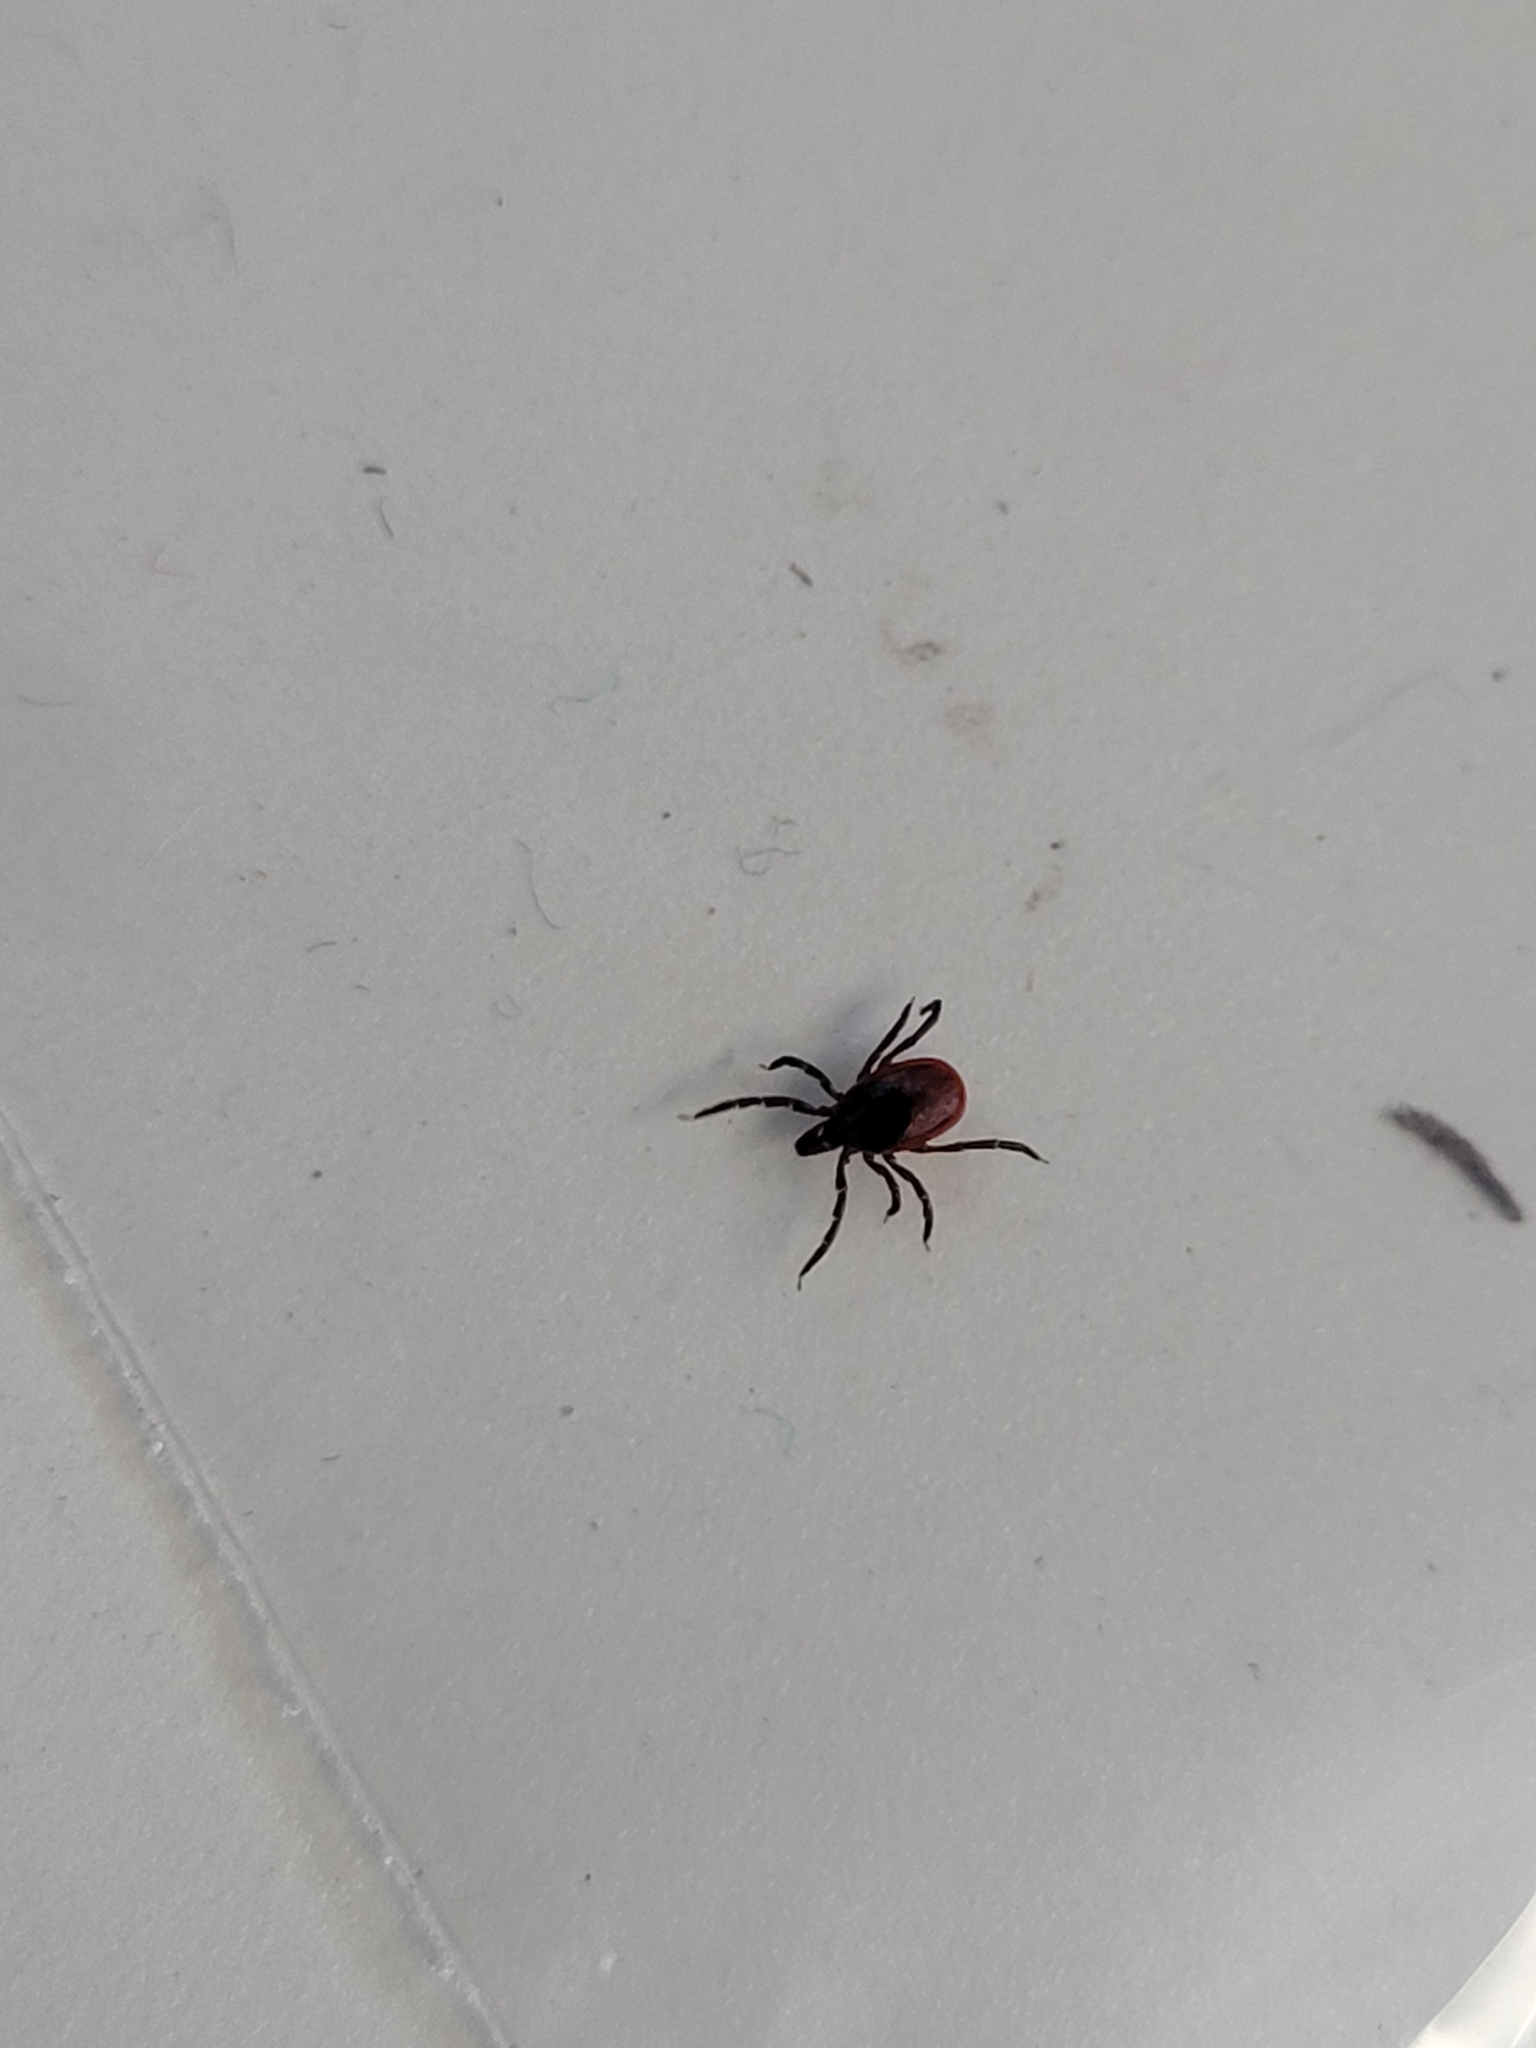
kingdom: Animalia
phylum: Arthropoda
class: Arachnida
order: Ixodida
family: Ixodidae
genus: Ixodes
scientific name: Ixodes scapularis
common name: Black legged tick
